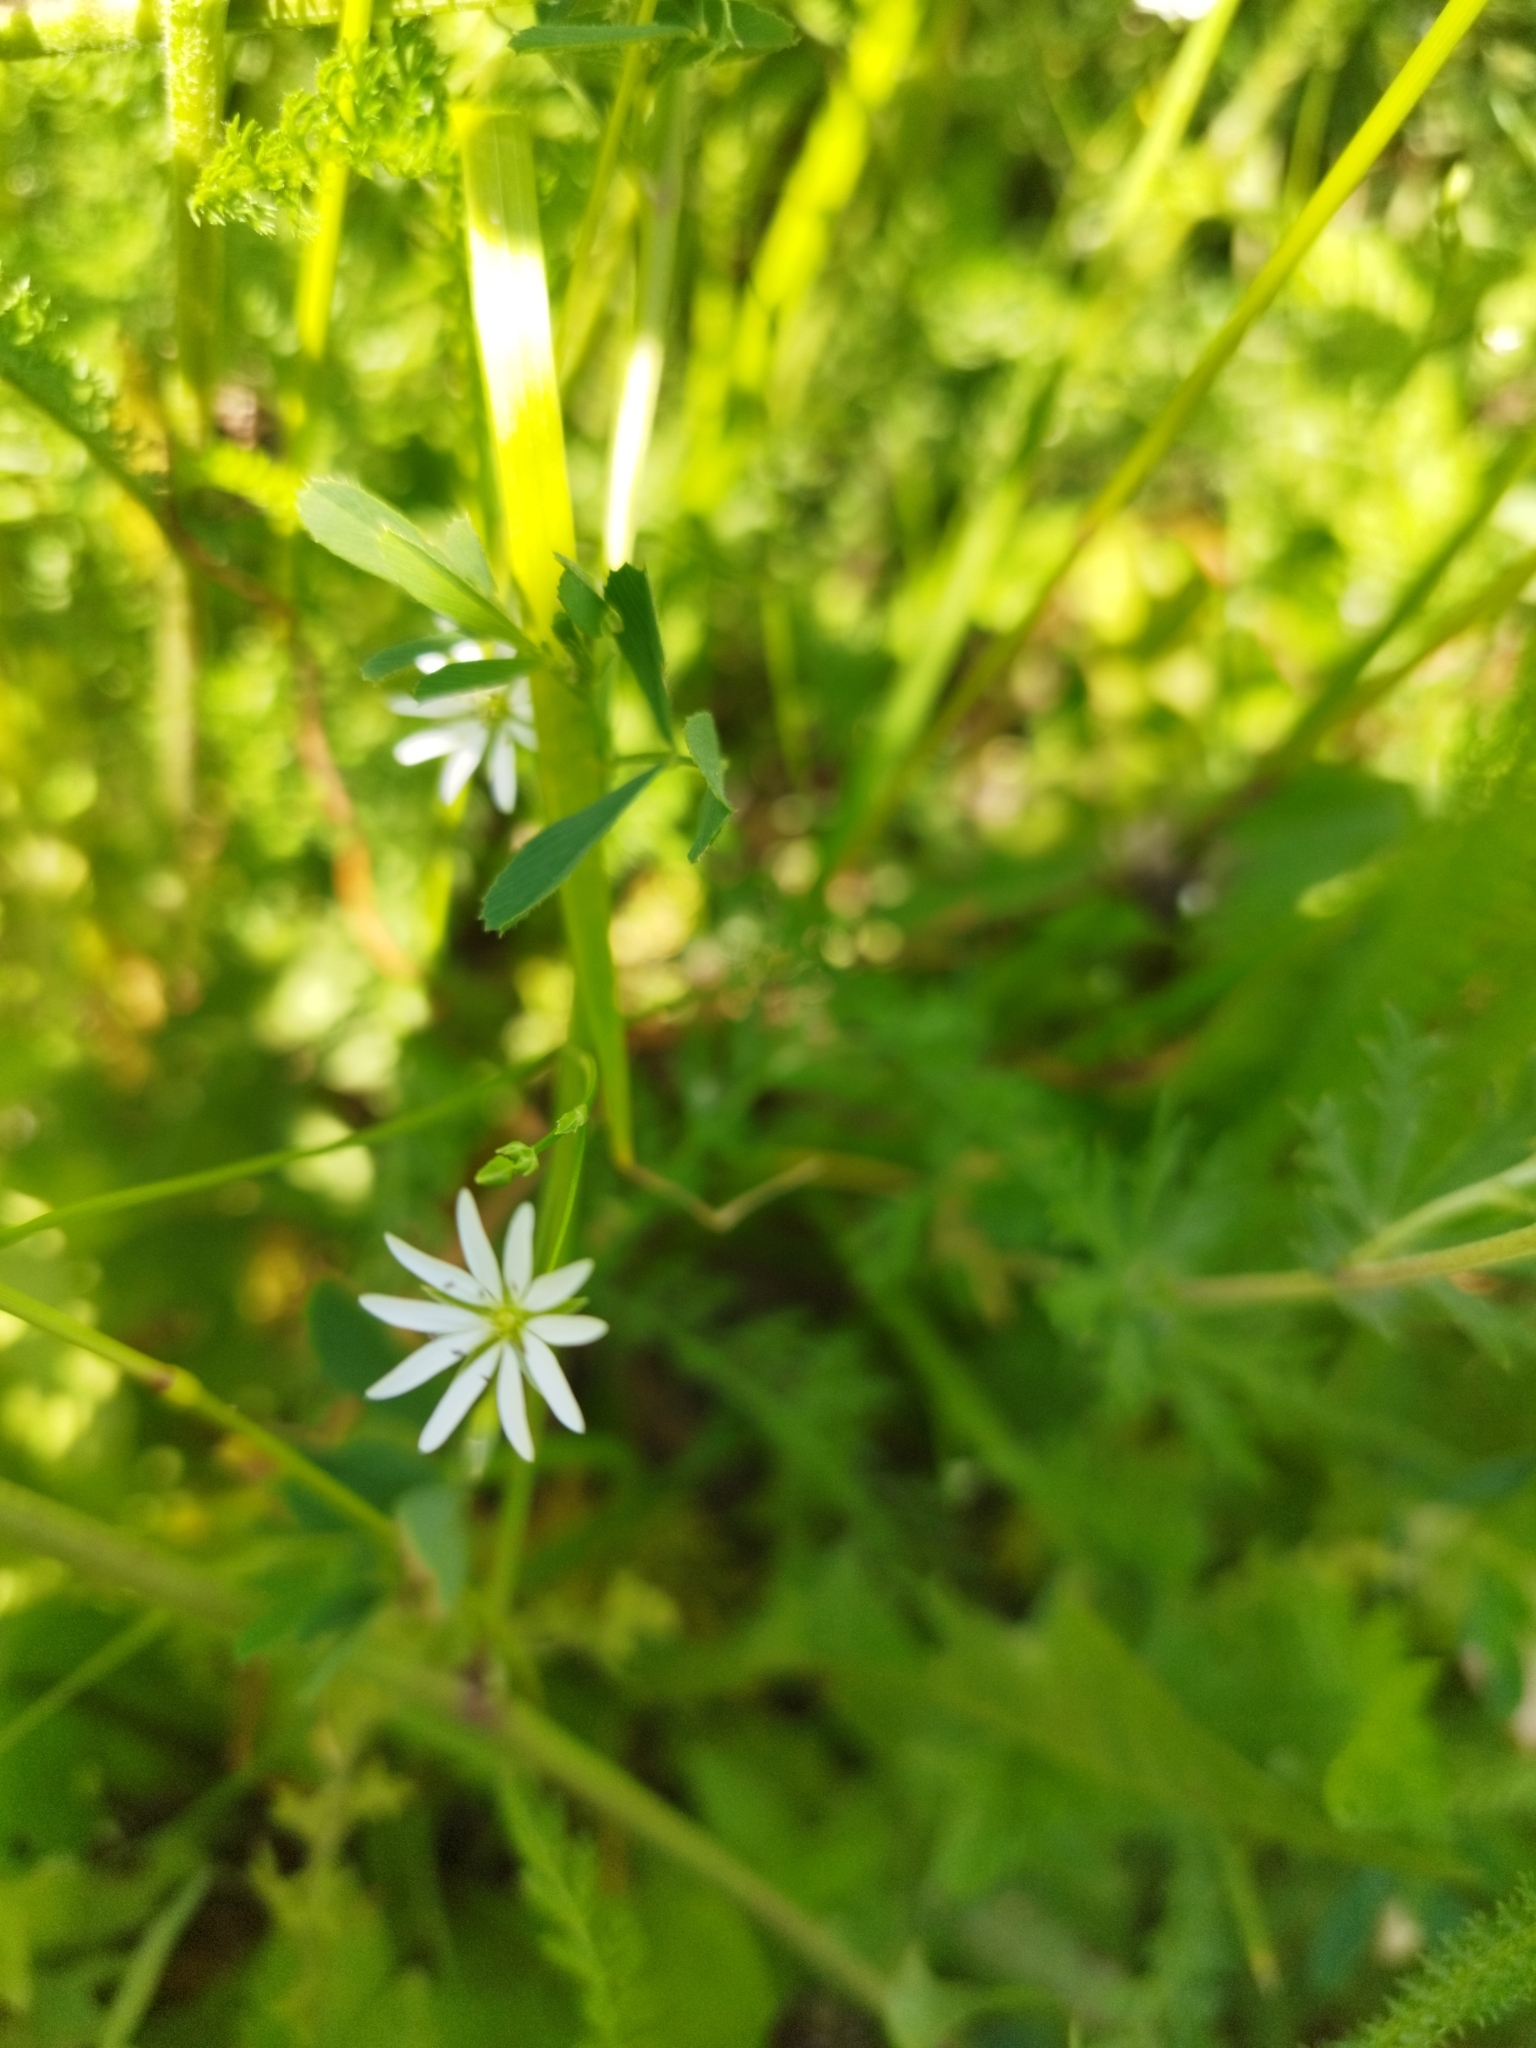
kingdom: Plantae
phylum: Tracheophyta
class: Magnoliopsida
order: Caryophyllales
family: Caryophyllaceae
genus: Stellaria
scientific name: Stellaria graminea
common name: Grass-like starwort
